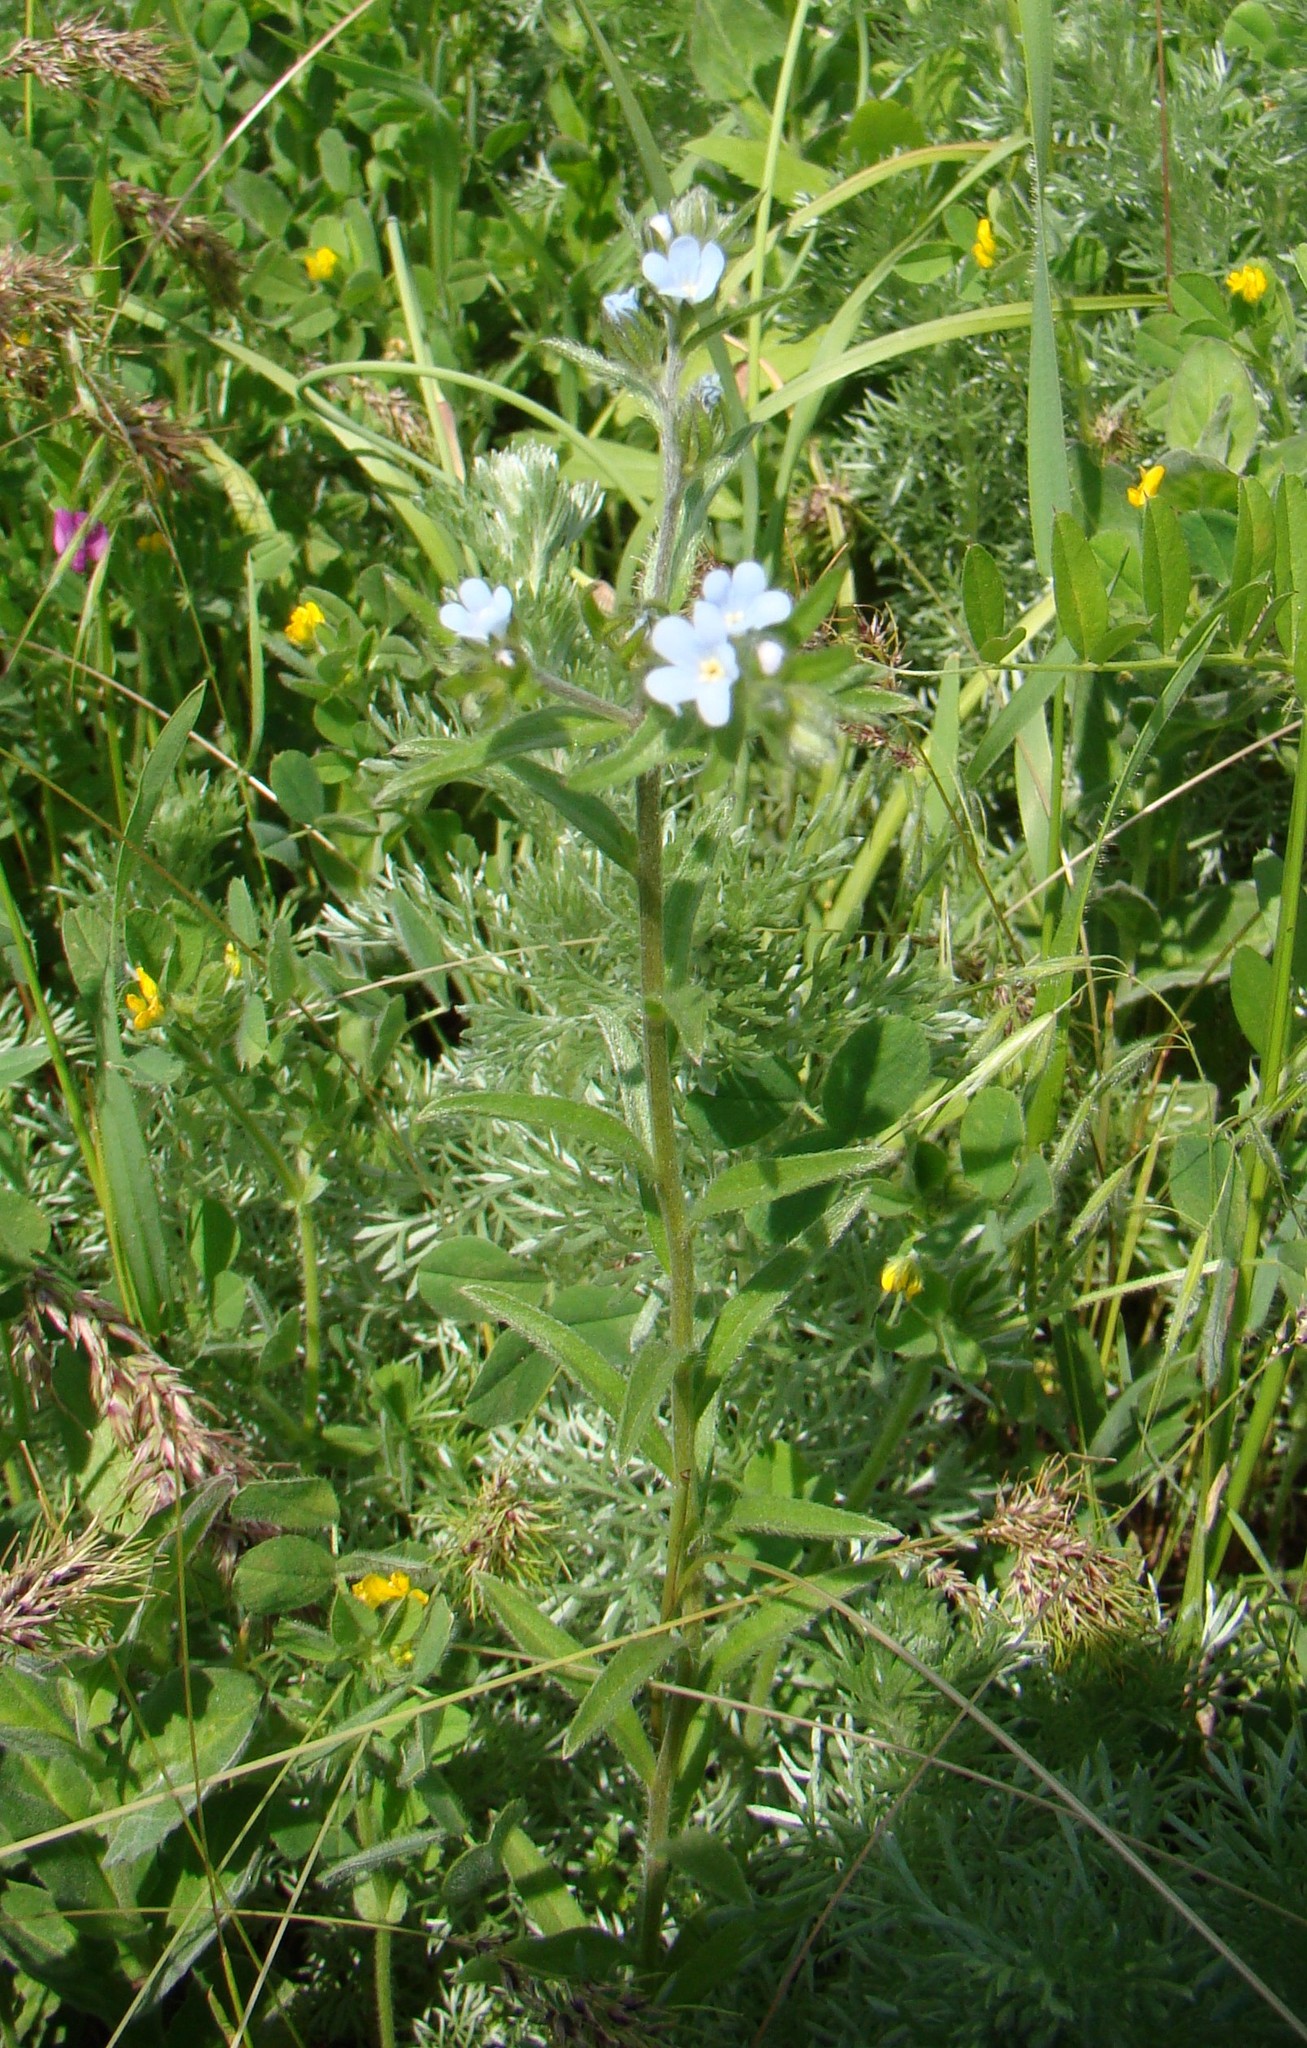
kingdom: Plantae
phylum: Tracheophyta
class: Magnoliopsida
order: Boraginales
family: Boraginaceae
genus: Lappula
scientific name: Lappula barbata
